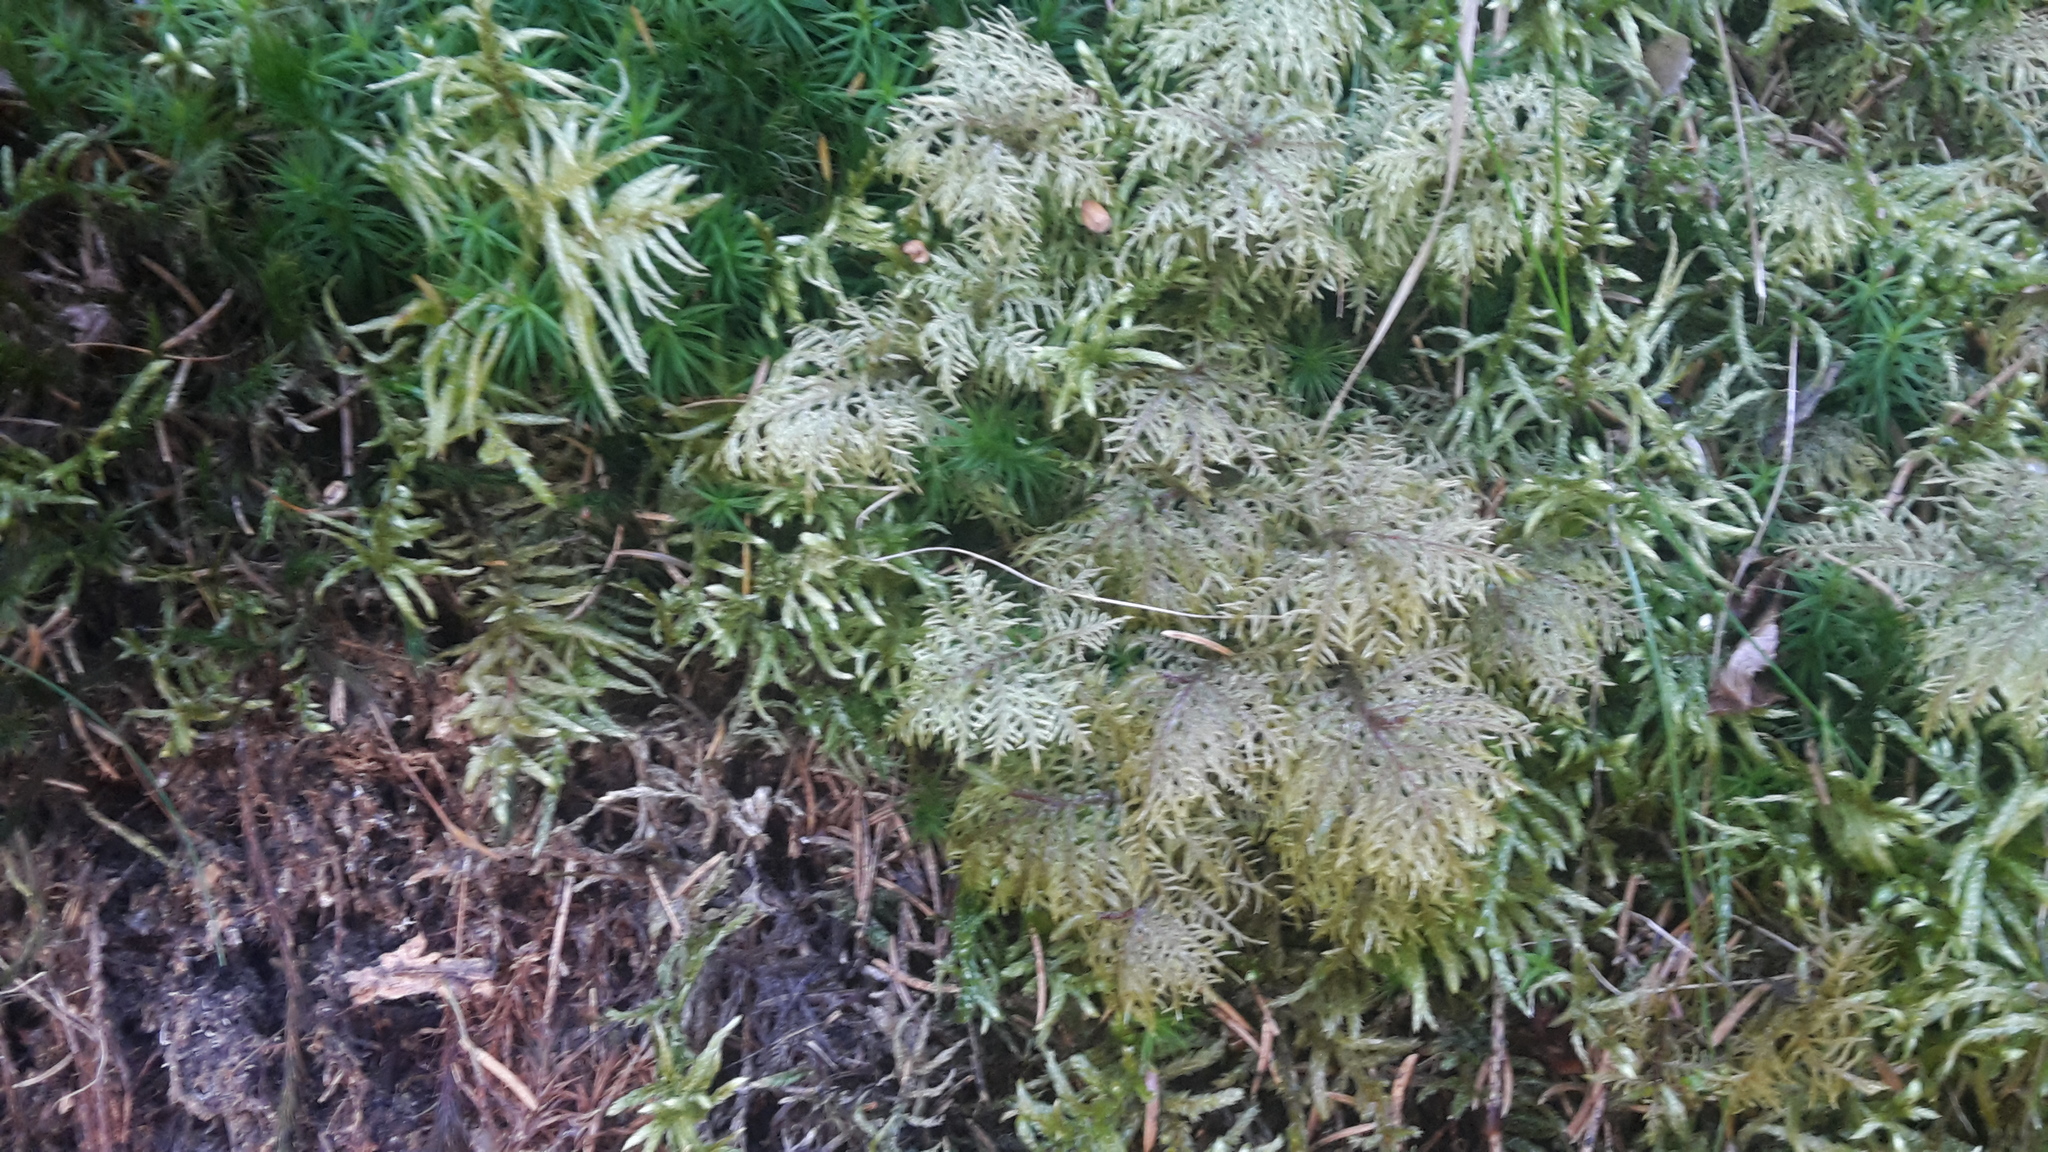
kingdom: Plantae
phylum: Bryophyta
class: Bryopsida
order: Hypnales
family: Hylocomiaceae
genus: Hylocomium
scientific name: Hylocomium splendens
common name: Stairstep moss
